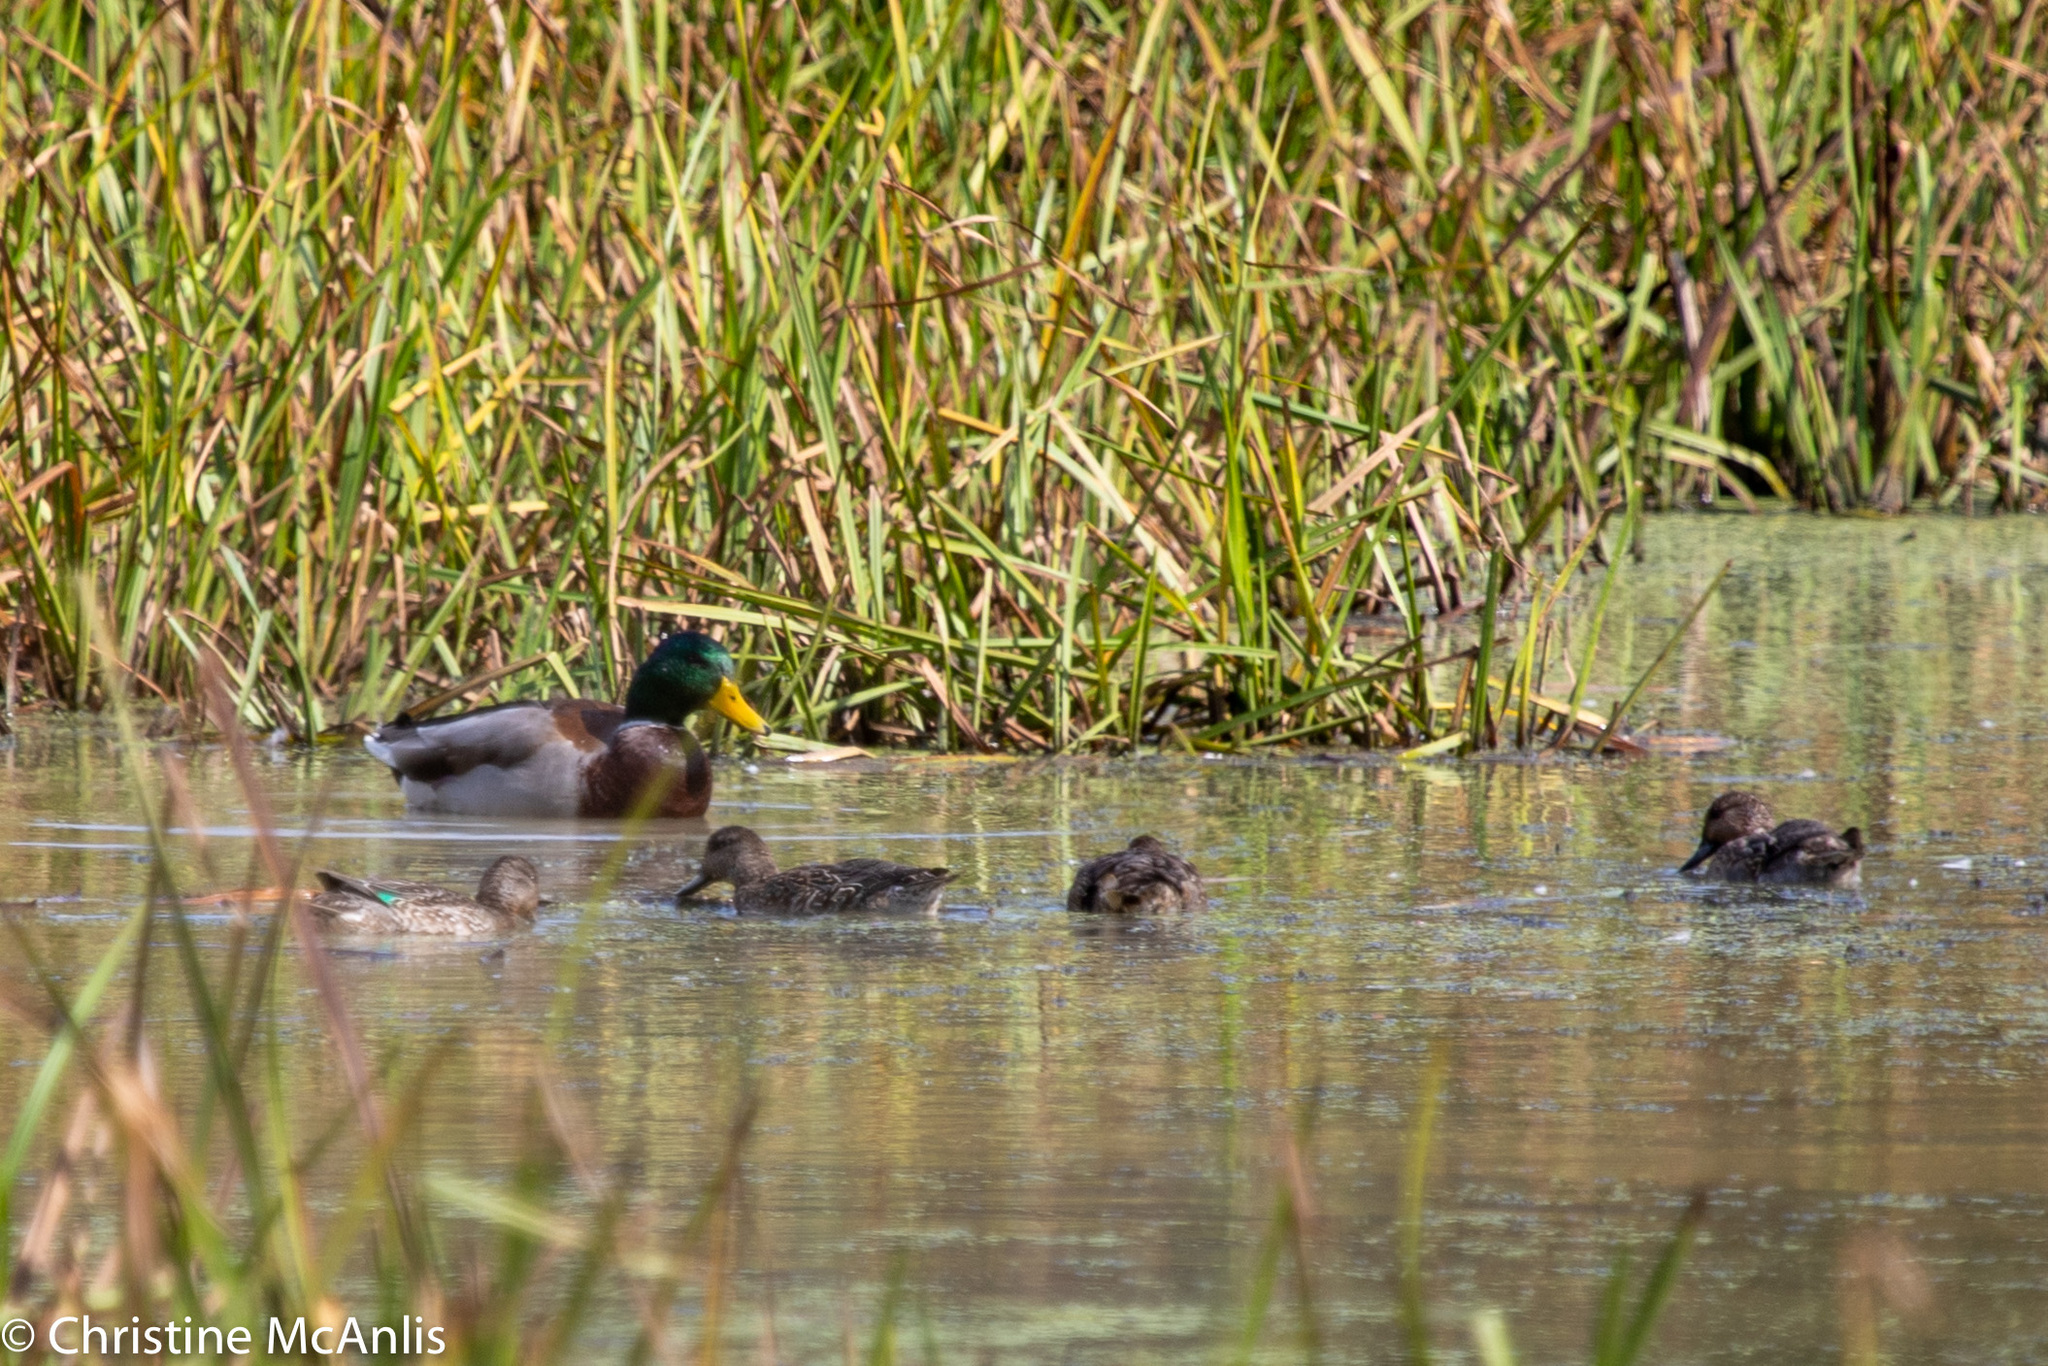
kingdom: Animalia
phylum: Chordata
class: Aves
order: Anseriformes
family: Anatidae
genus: Anas
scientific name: Anas crecca
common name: Eurasian teal
